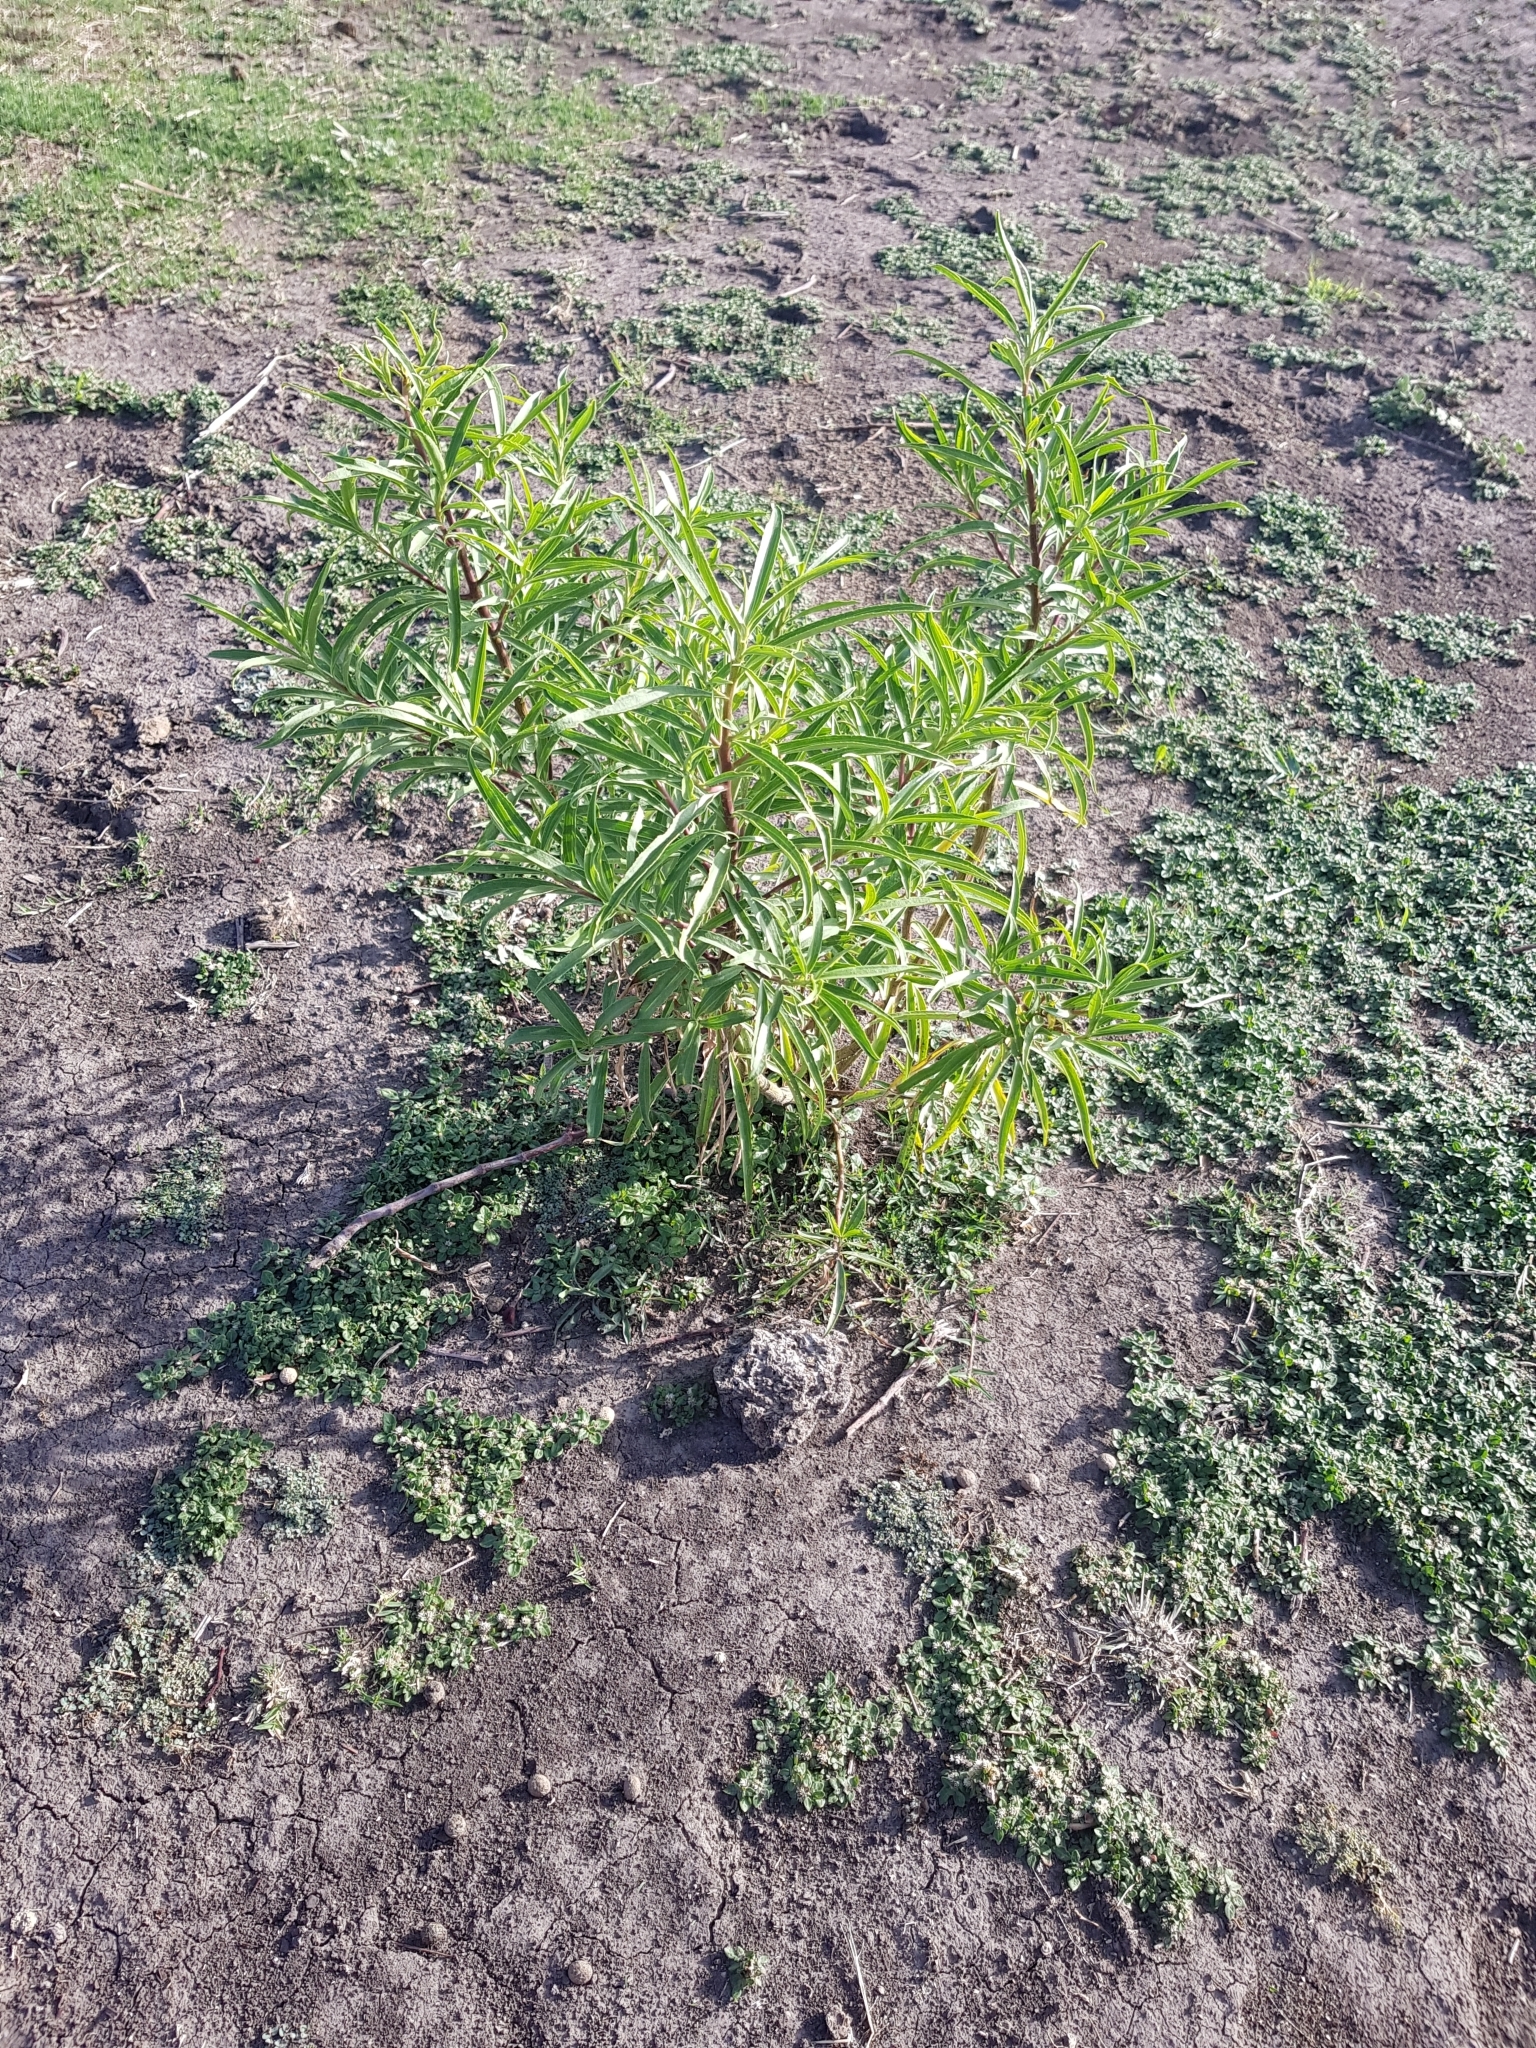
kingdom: Plantae
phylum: Tracheophyta
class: Magnoliopsida
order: Asterales
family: Asteraceae
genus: Barkleyanthus
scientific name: Barkleyanthus salicifolius
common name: Willow ragwort
